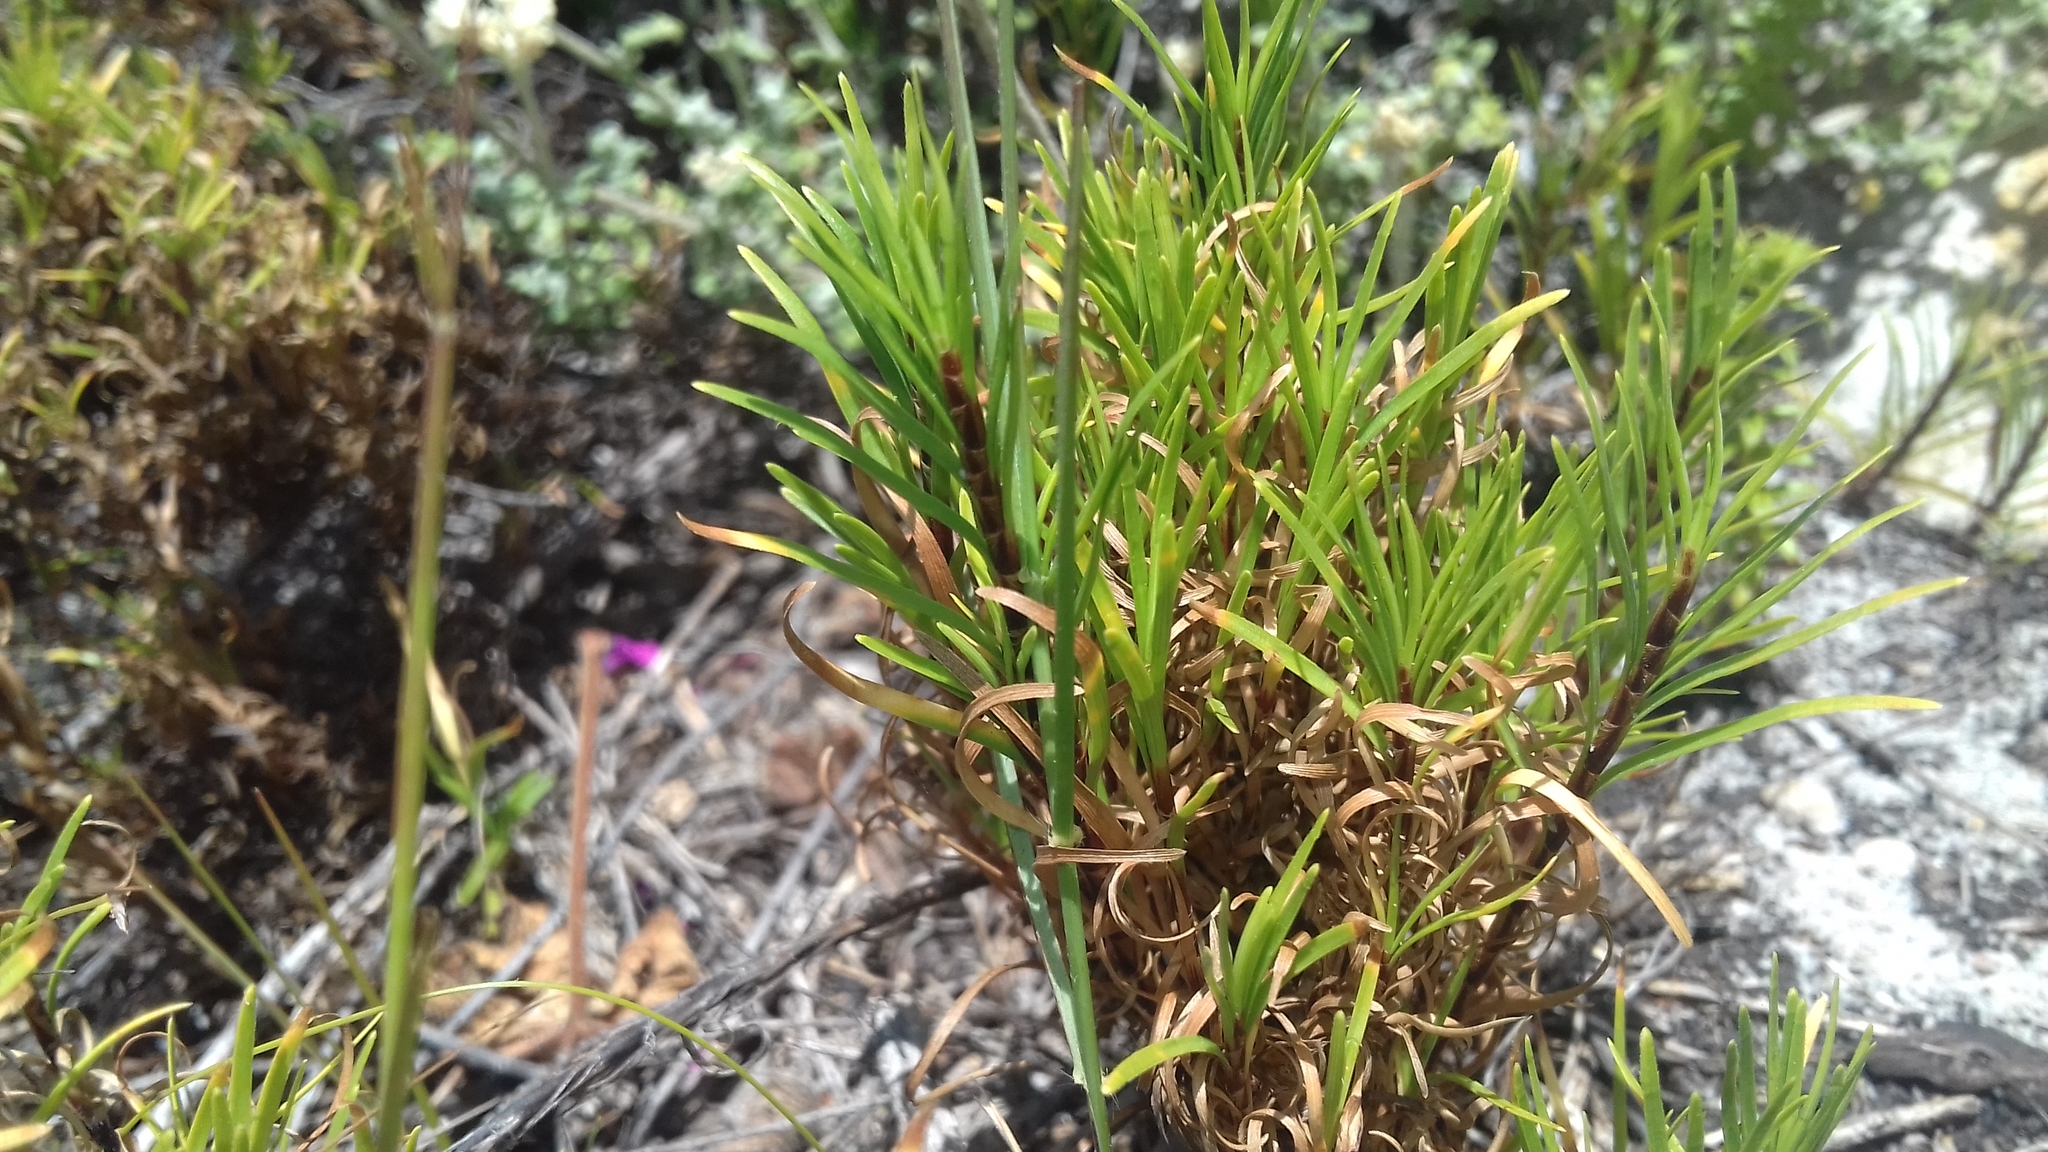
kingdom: Plantae
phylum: Tracheophyta
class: Liliopsida
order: Poales
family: Cyperaceae
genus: Ficinia
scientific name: Ficinia ramosissima
